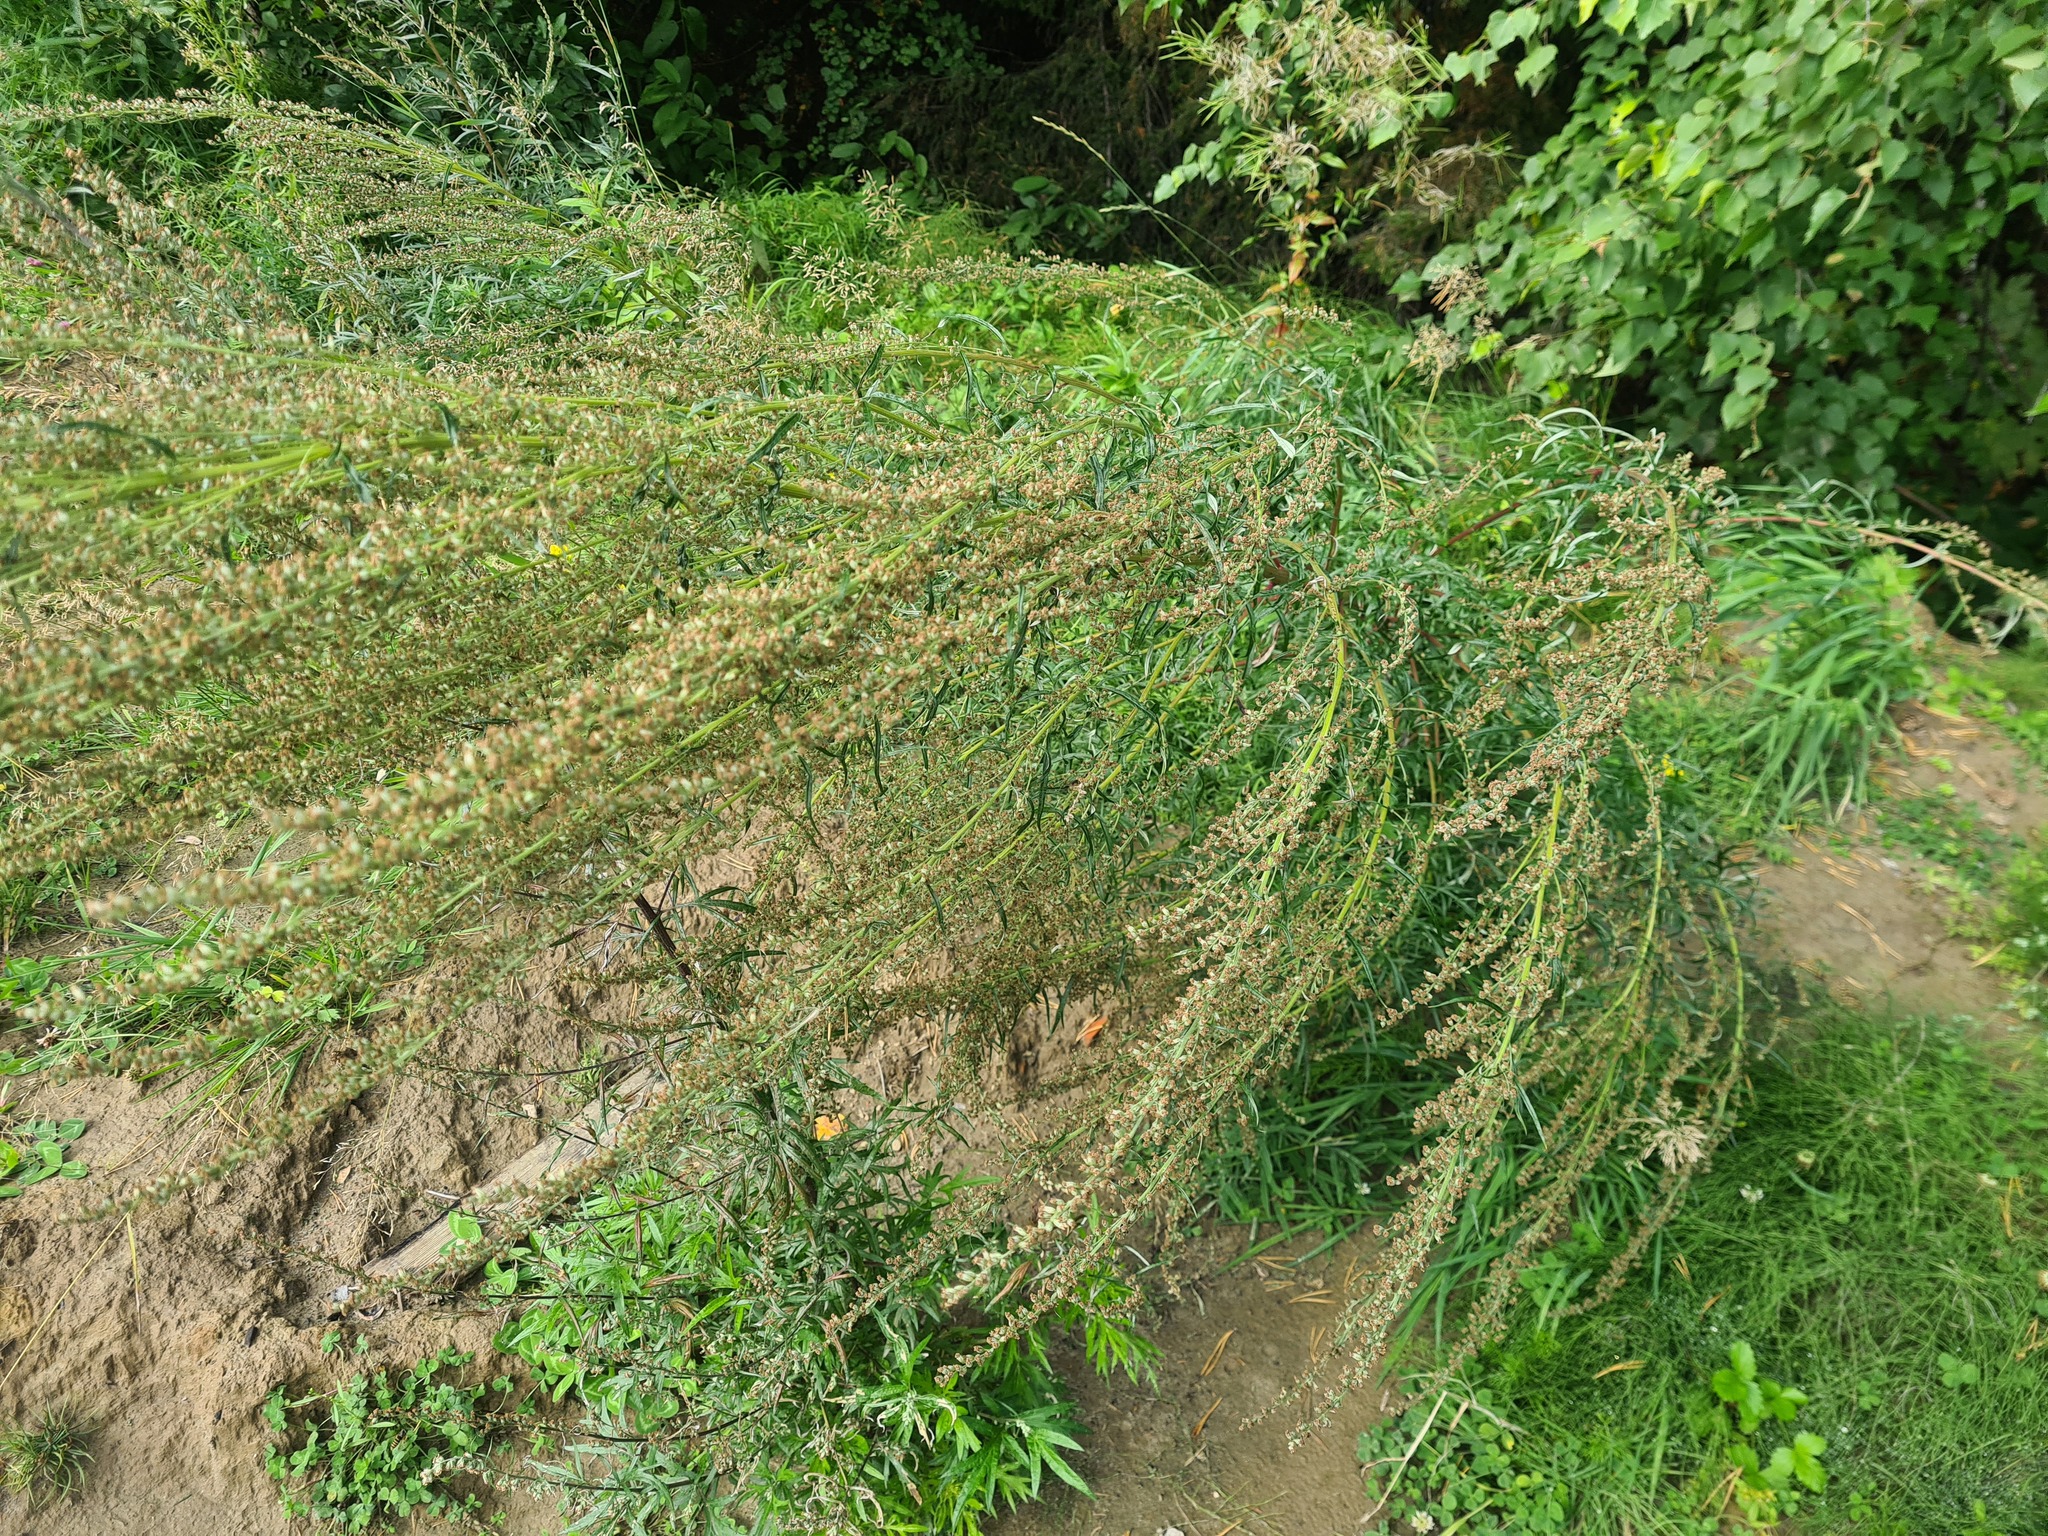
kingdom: Plantae
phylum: Tracheophyta
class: Magnoliopsida
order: Asterales
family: Asteraceae
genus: Artemisia
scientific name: Artemisia vulgaris
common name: Mugwort
